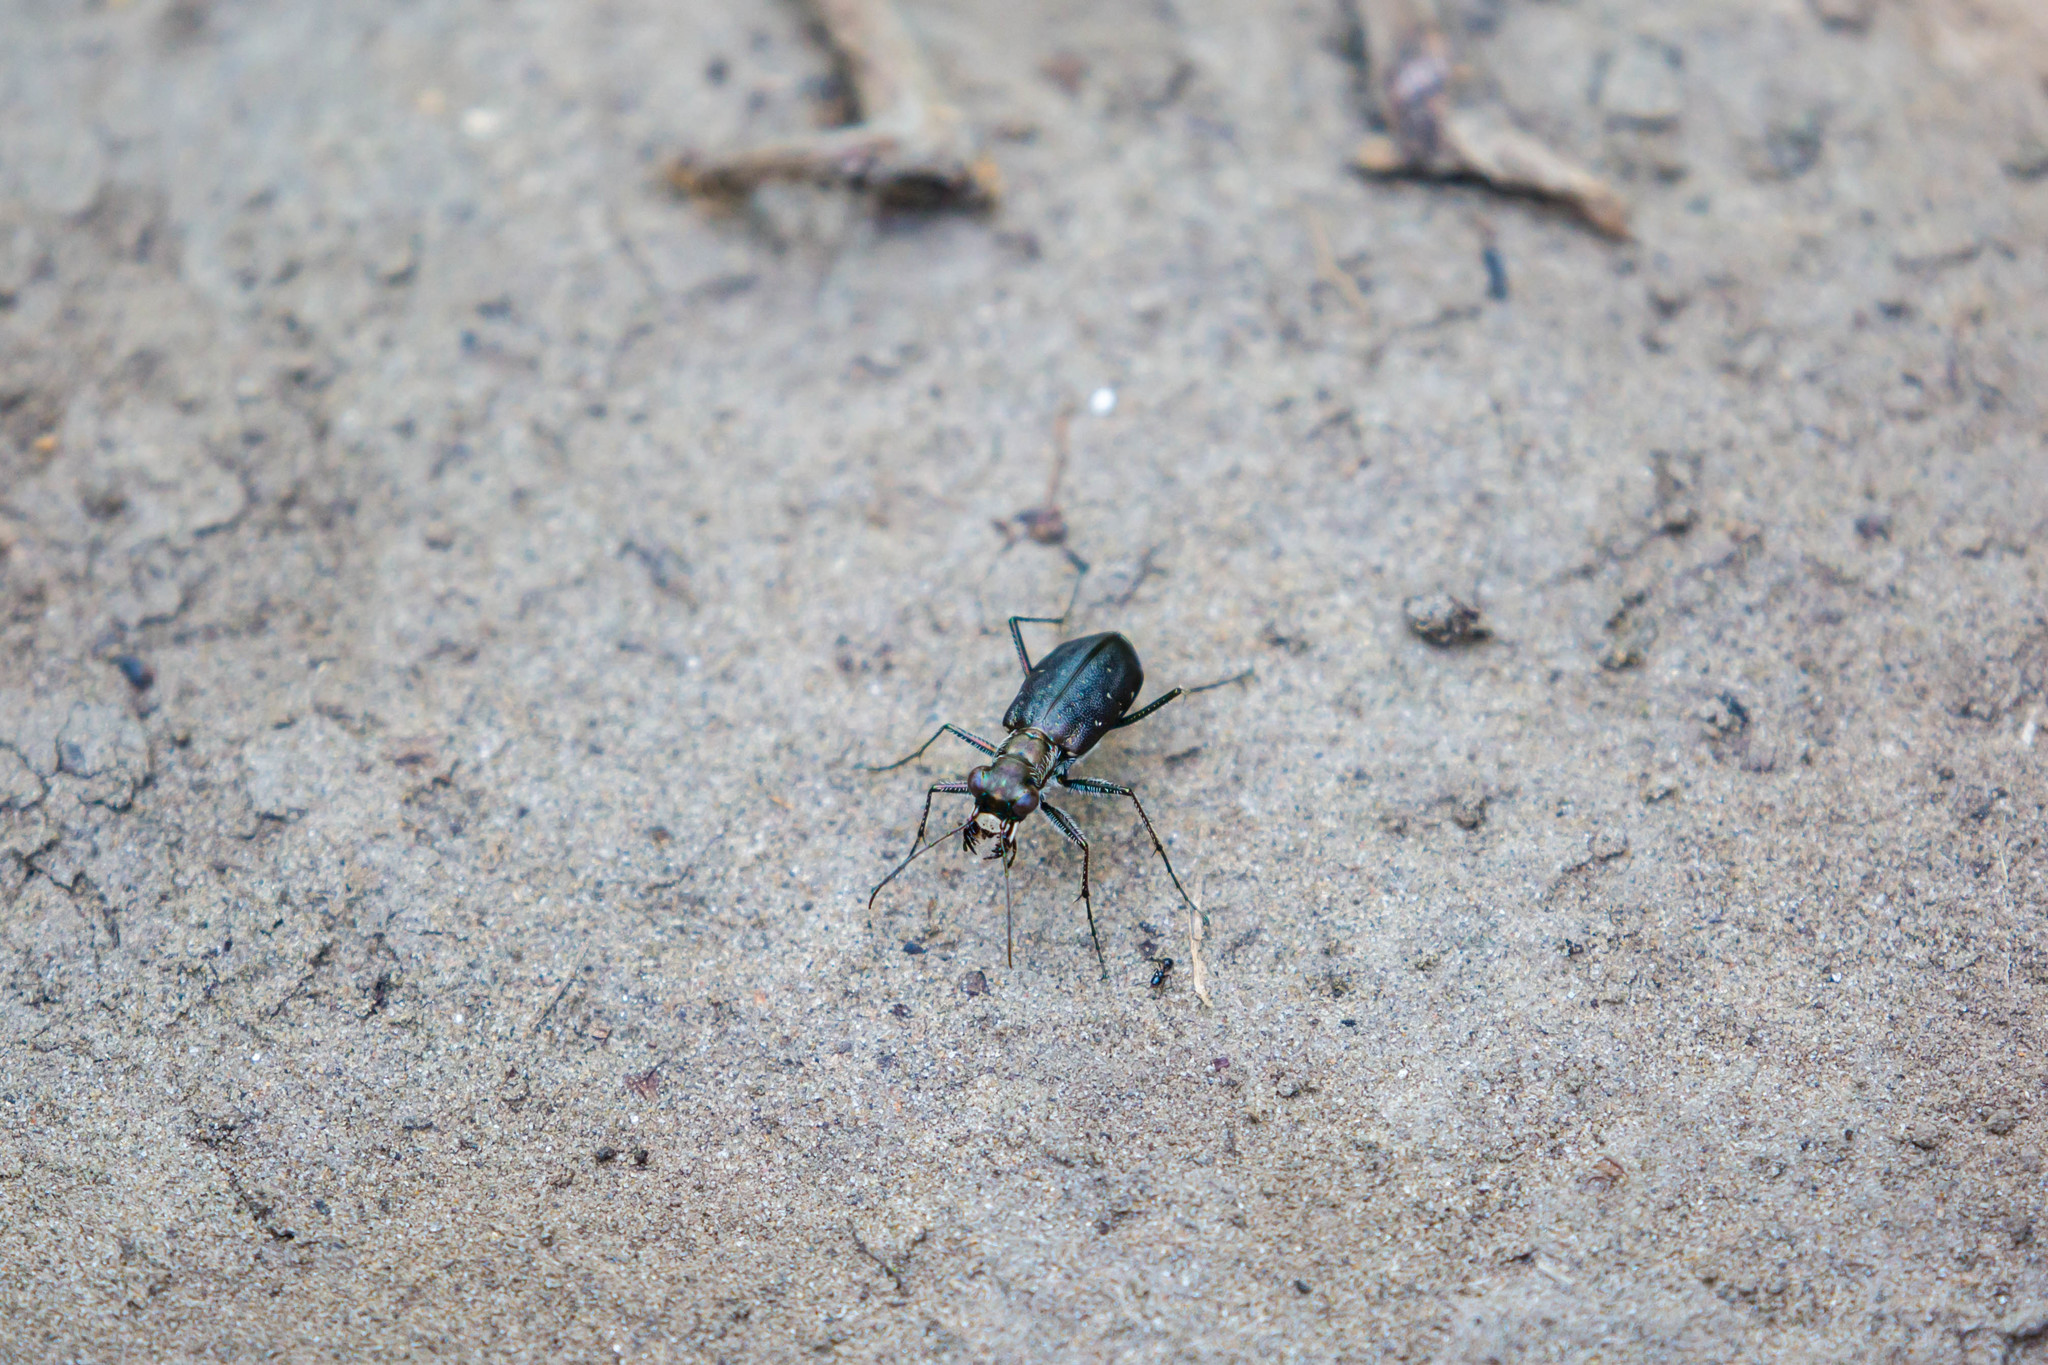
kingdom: Animalia
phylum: Arthropoda
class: Insecta
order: Coleoptera
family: Carabidae
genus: Cicindela
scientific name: Cicindela punctulata
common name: Punctured tiger beetle
